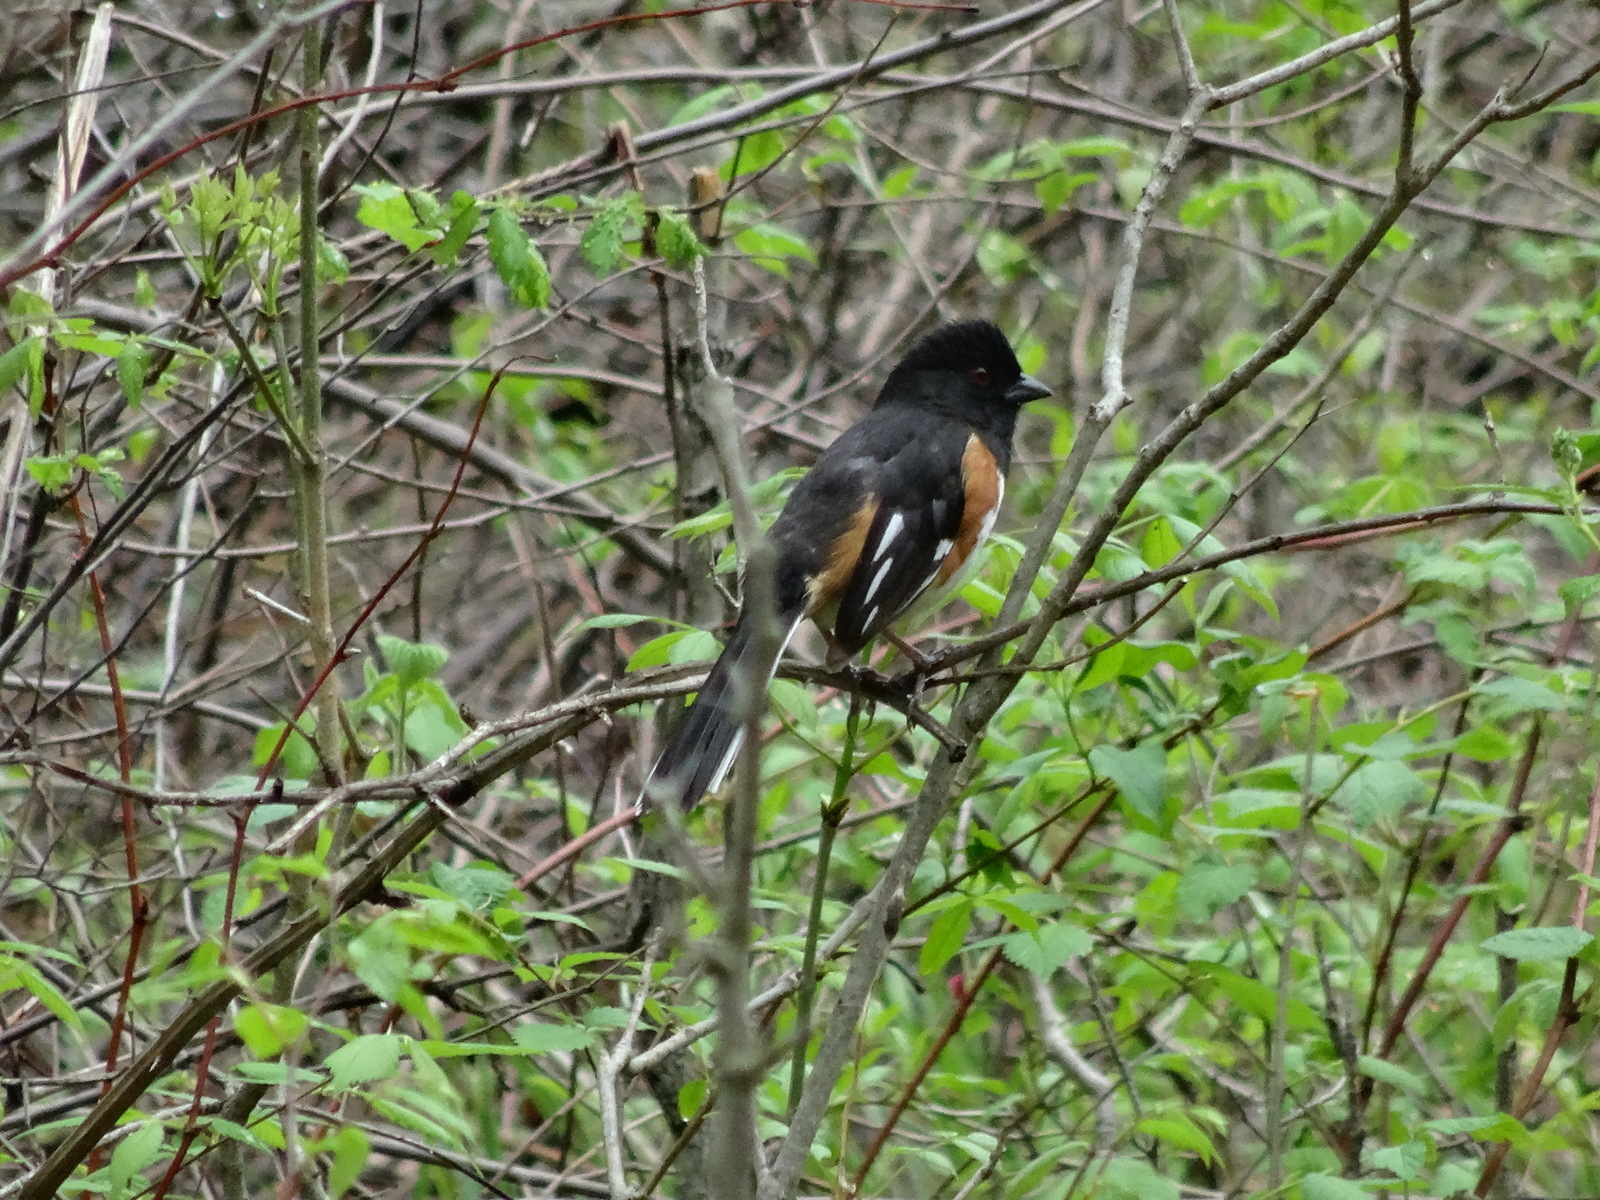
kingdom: Animalia
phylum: Chordata
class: Aves
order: Passeriformes
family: Passerellidae
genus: Pipilo
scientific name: Pipilo erythrophthalmus
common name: Eastern towhee
